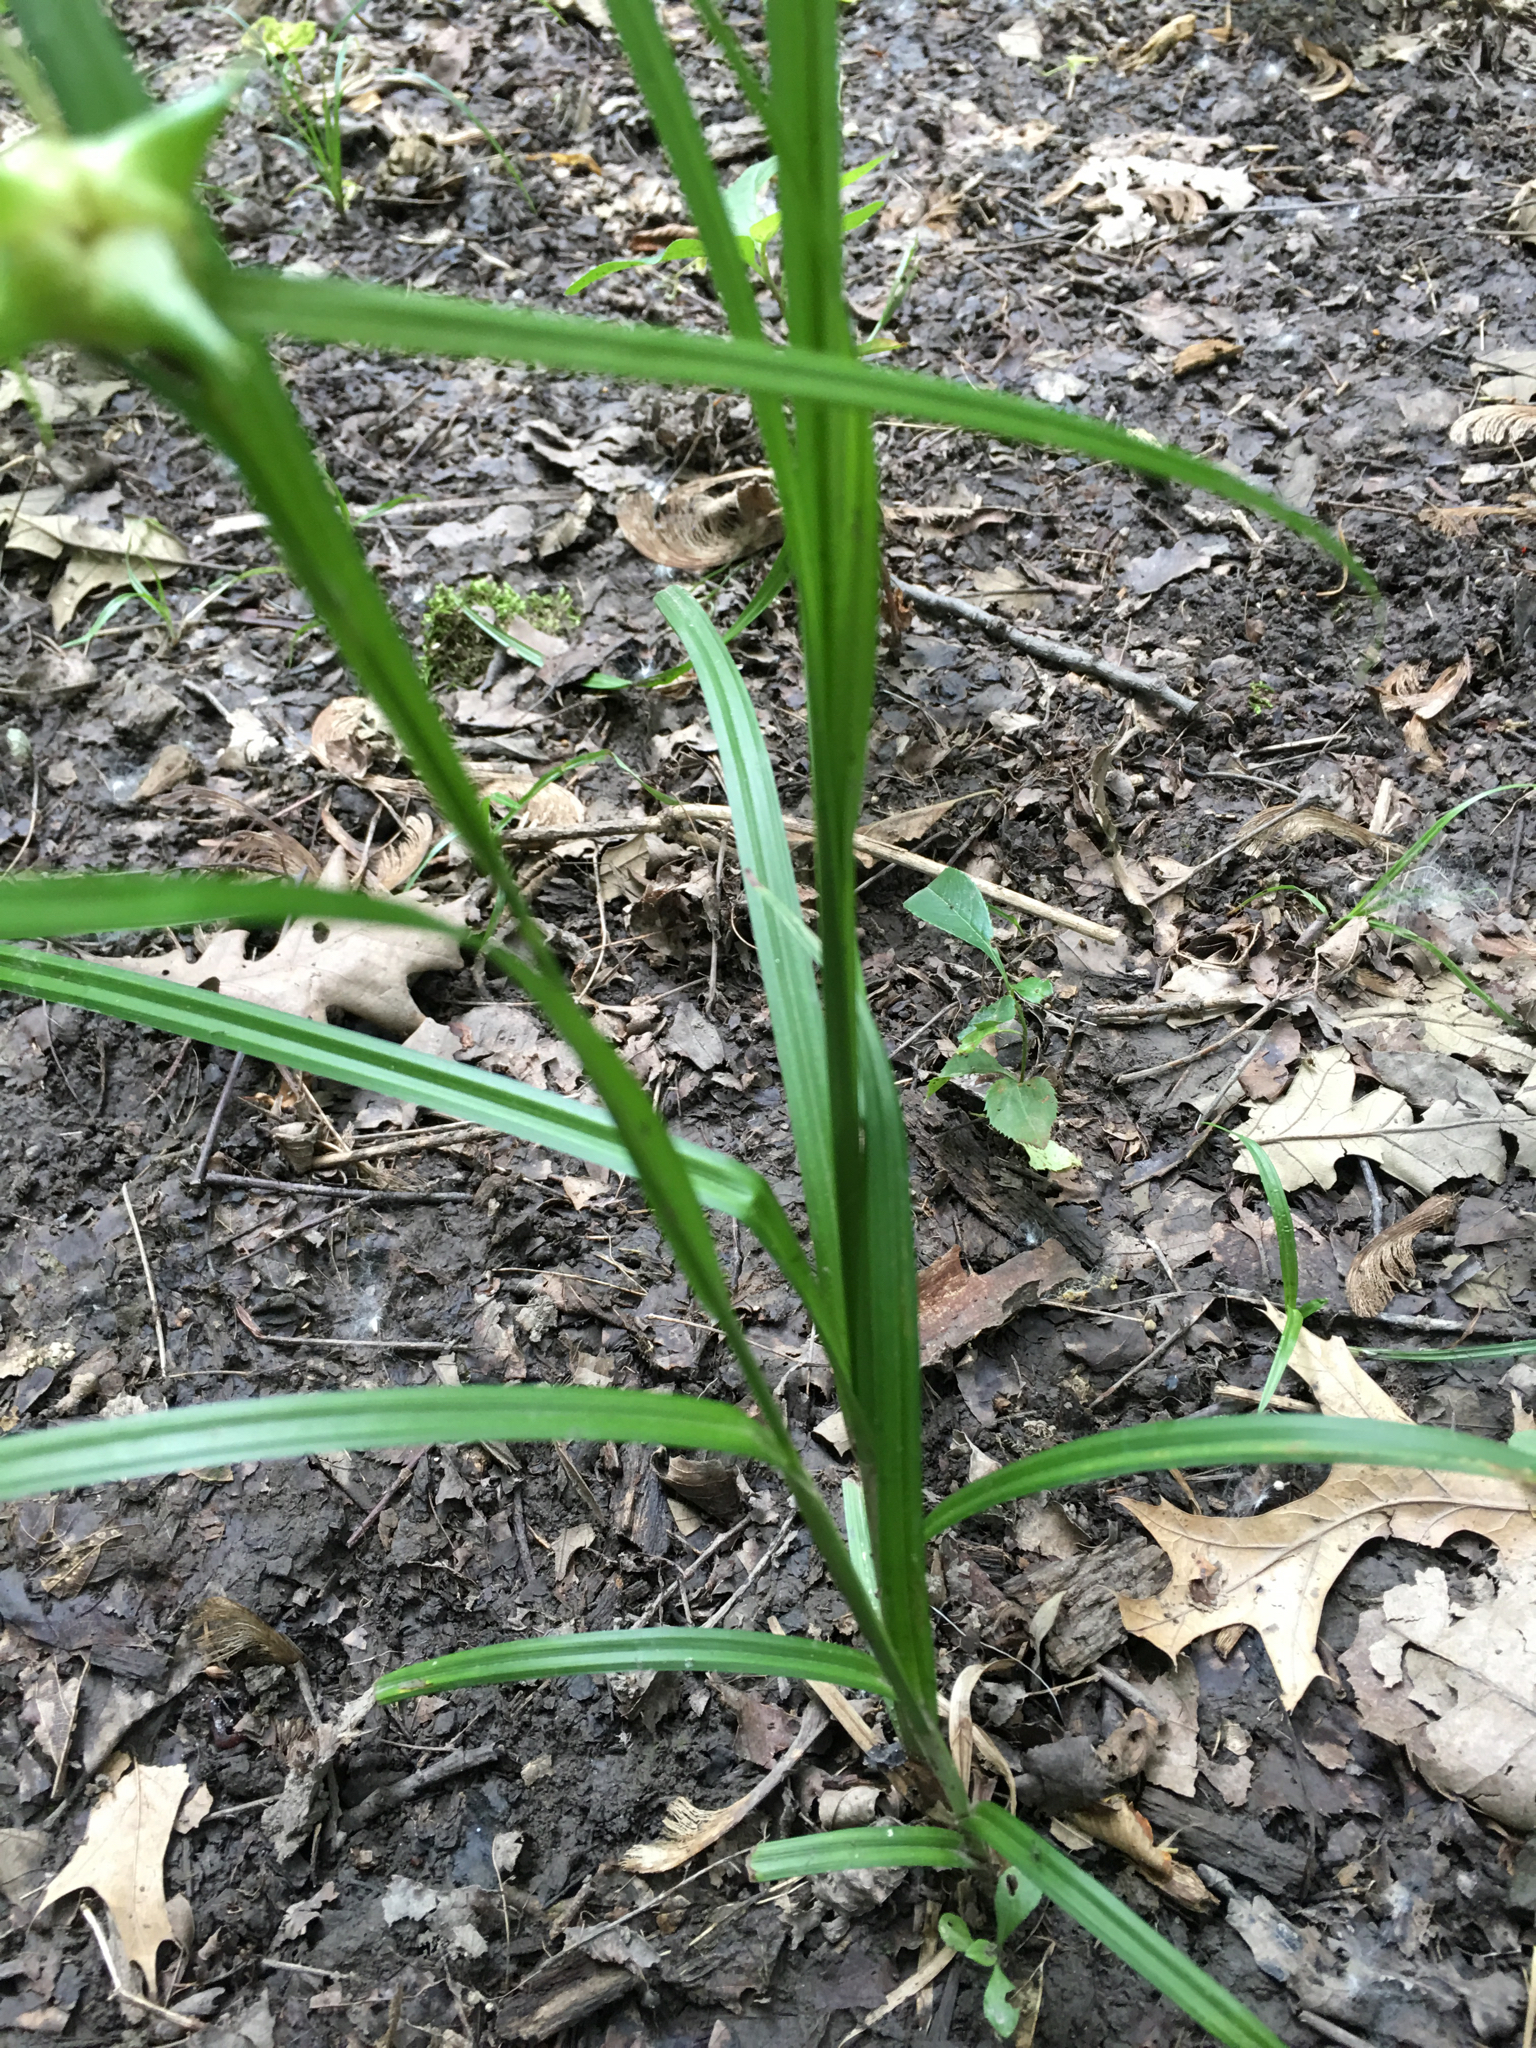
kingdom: Plantae
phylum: Tracheophyta
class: Liliopsida
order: Poales
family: Cyperaceae
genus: Carex
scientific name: Carex grayi
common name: Asa gray's sedge
